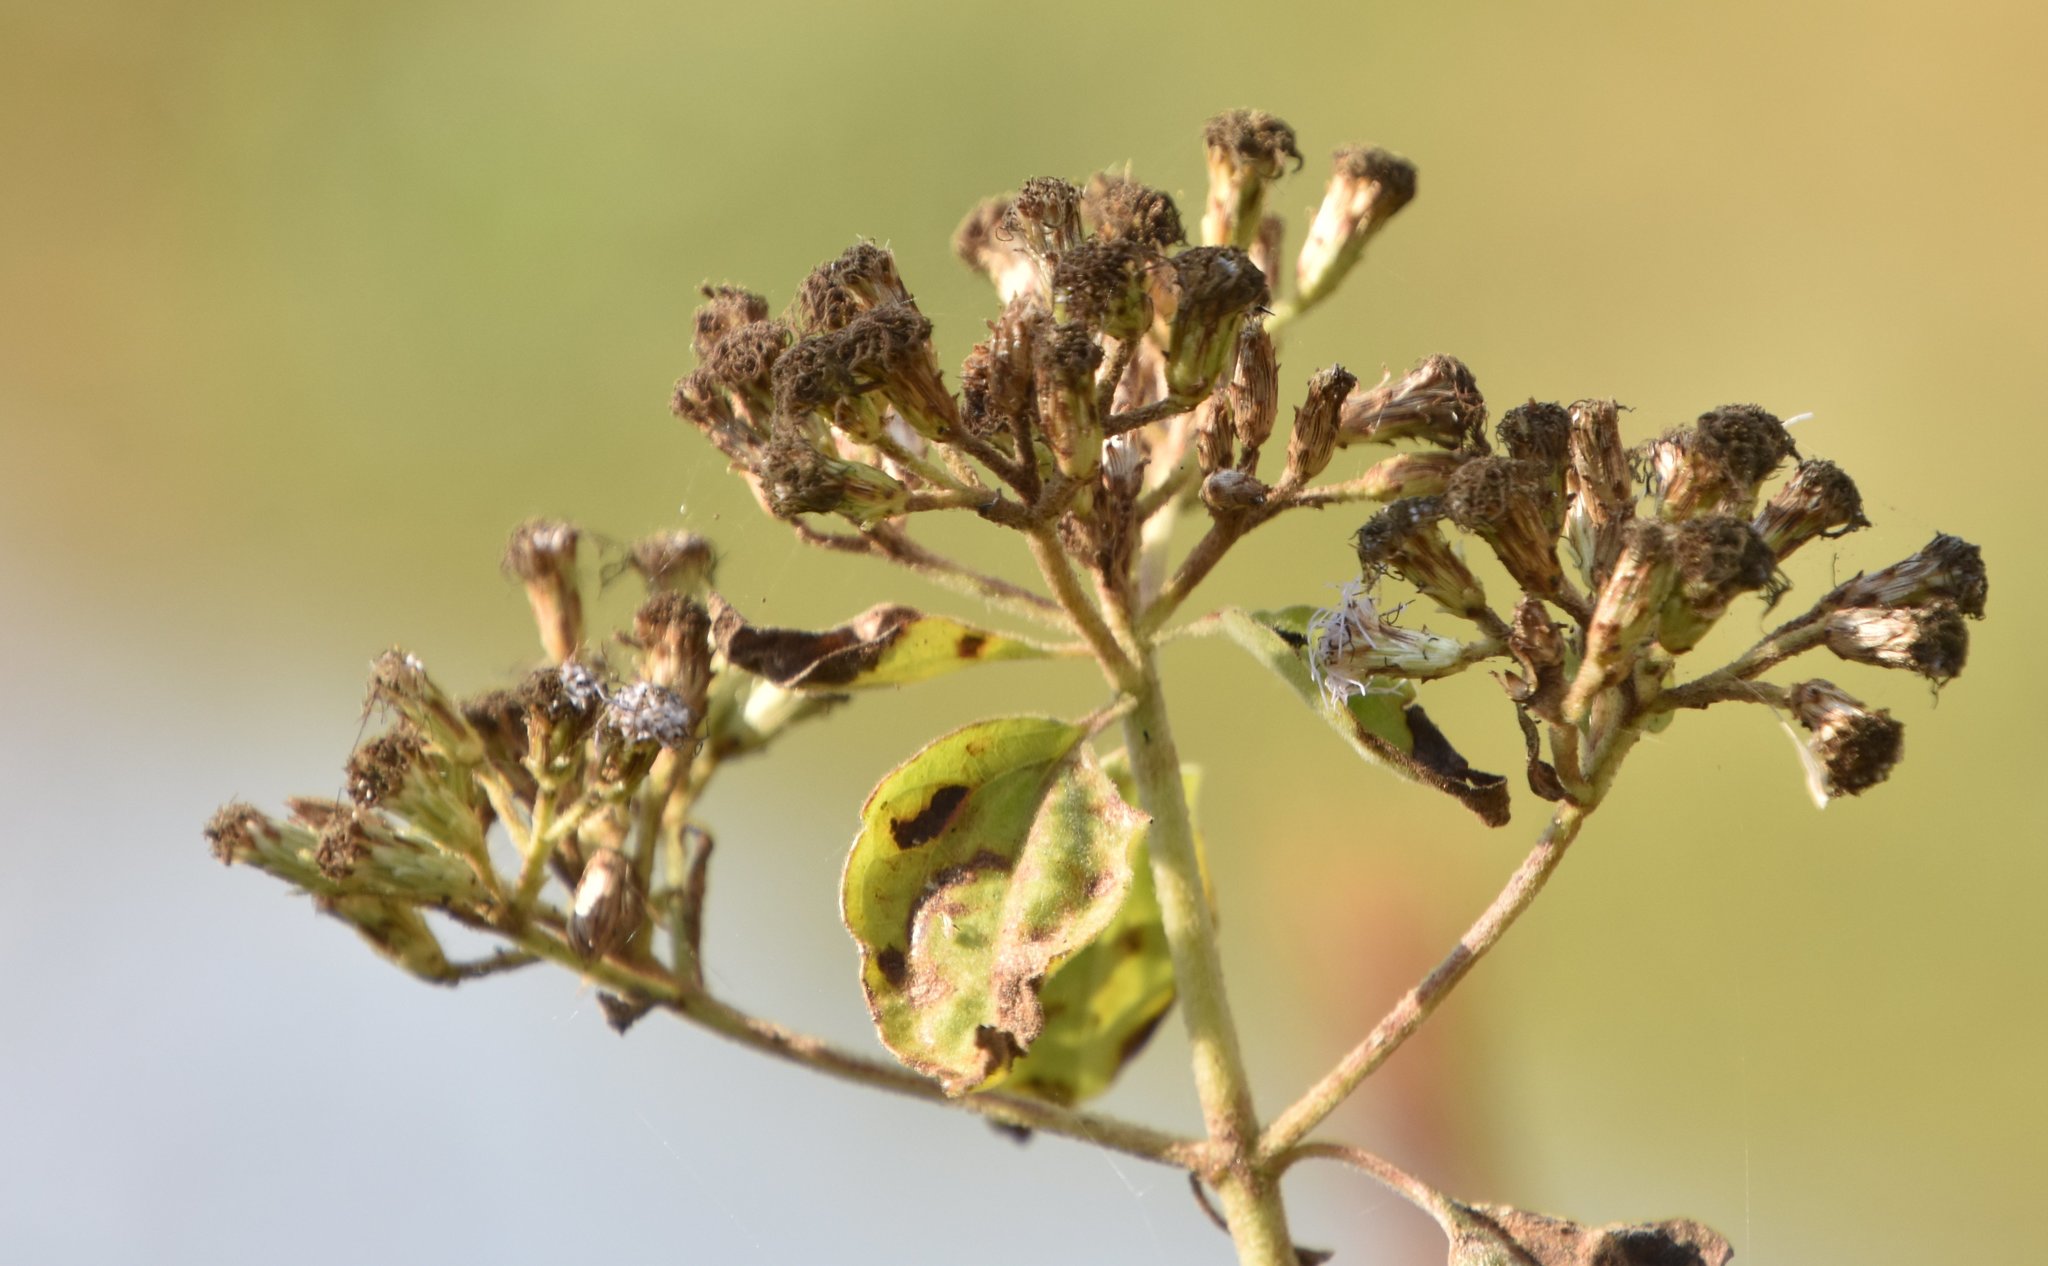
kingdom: Plantae
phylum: Tracheophyta
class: Magnoliopsida
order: Asterales
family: Asteraceae
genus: Chromolaena
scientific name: Chromolaena odorata
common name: Siamweed
